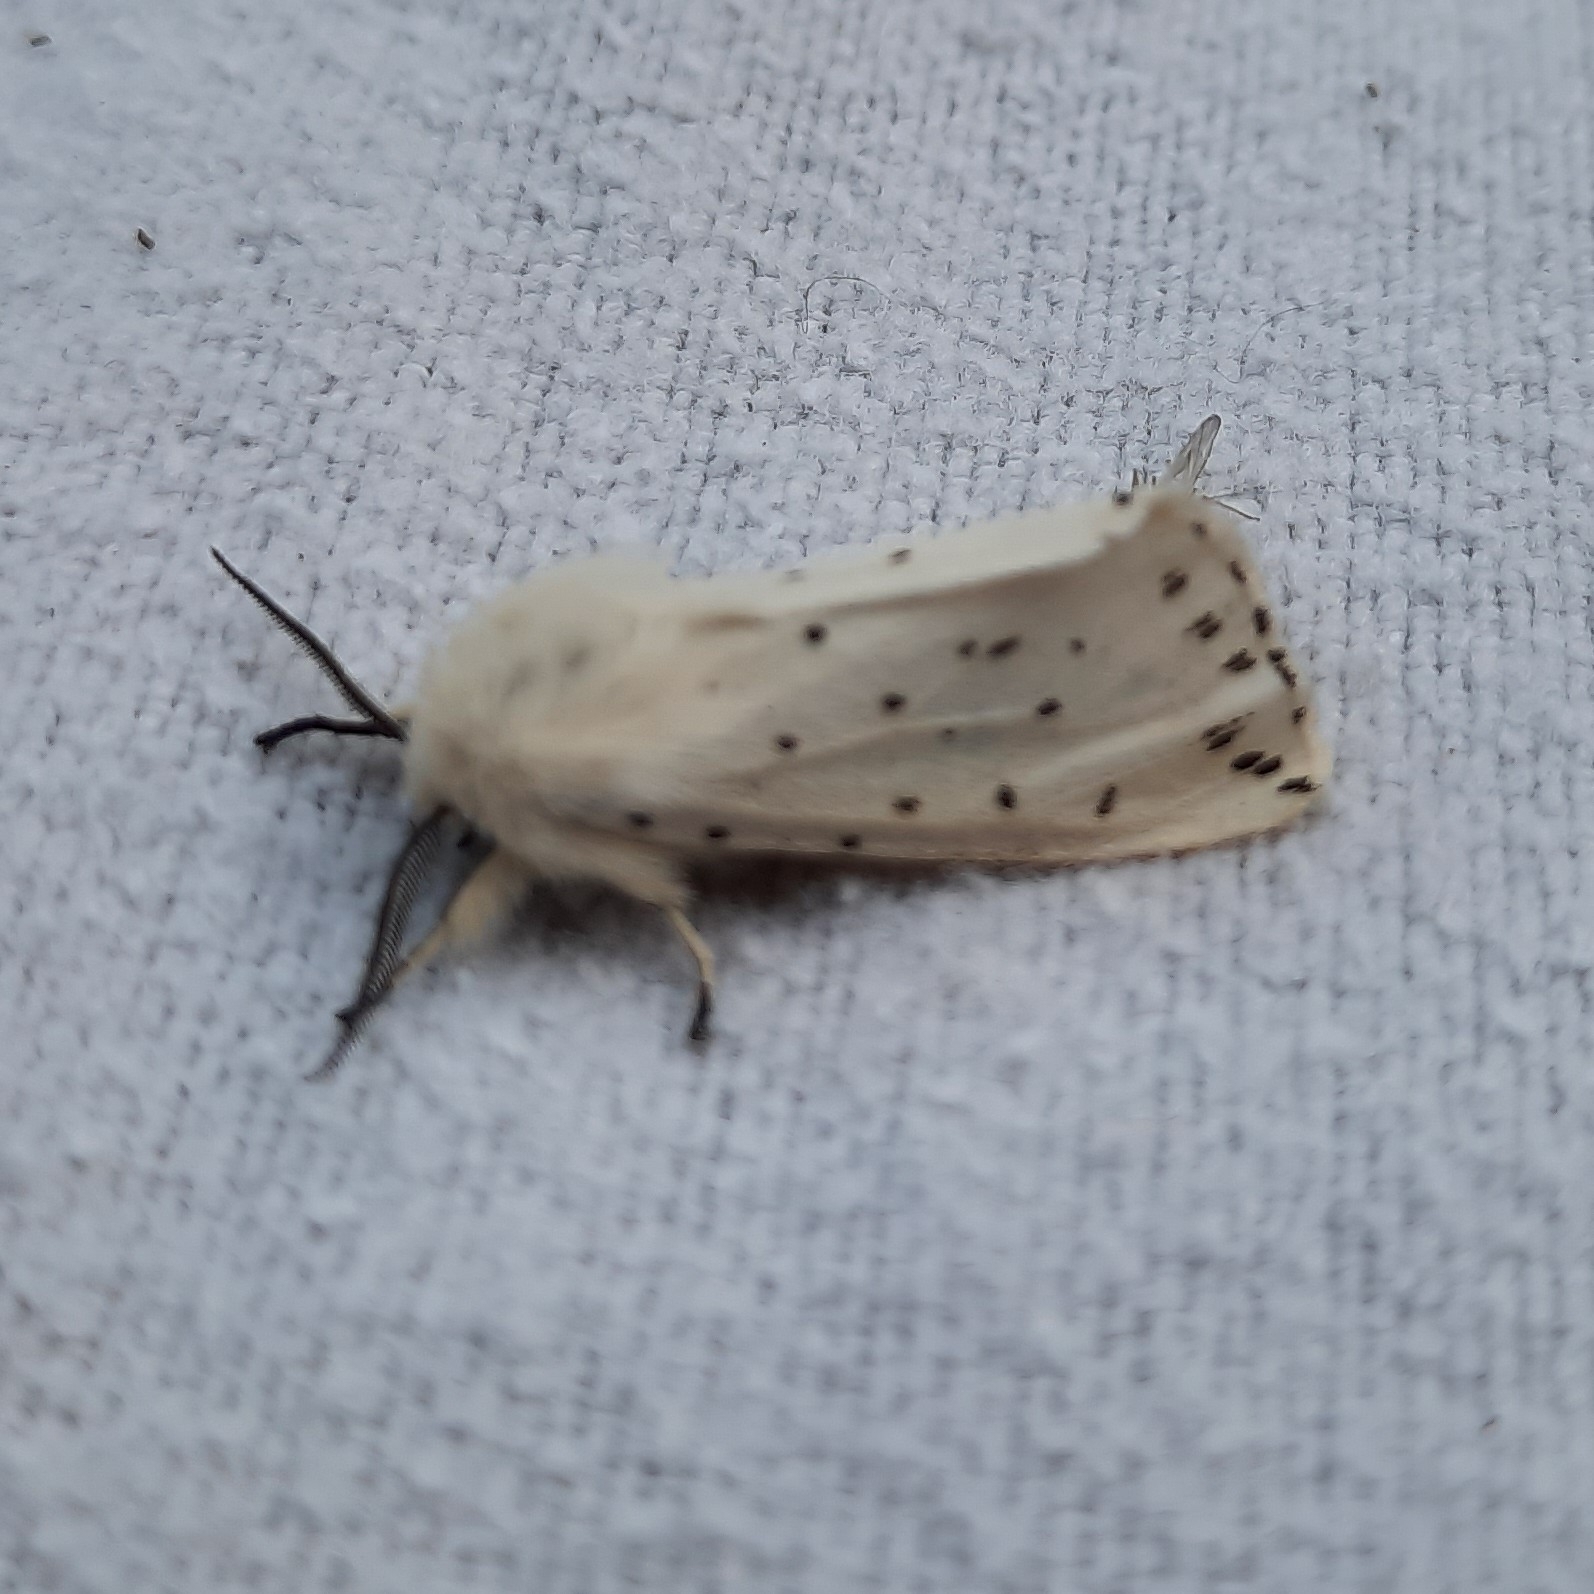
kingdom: Animalia
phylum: Arthropoda
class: Insecta
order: Lepidoptera
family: Erebidae
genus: Spilosoma
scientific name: Spilosoma lubricipeda
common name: White ermine
